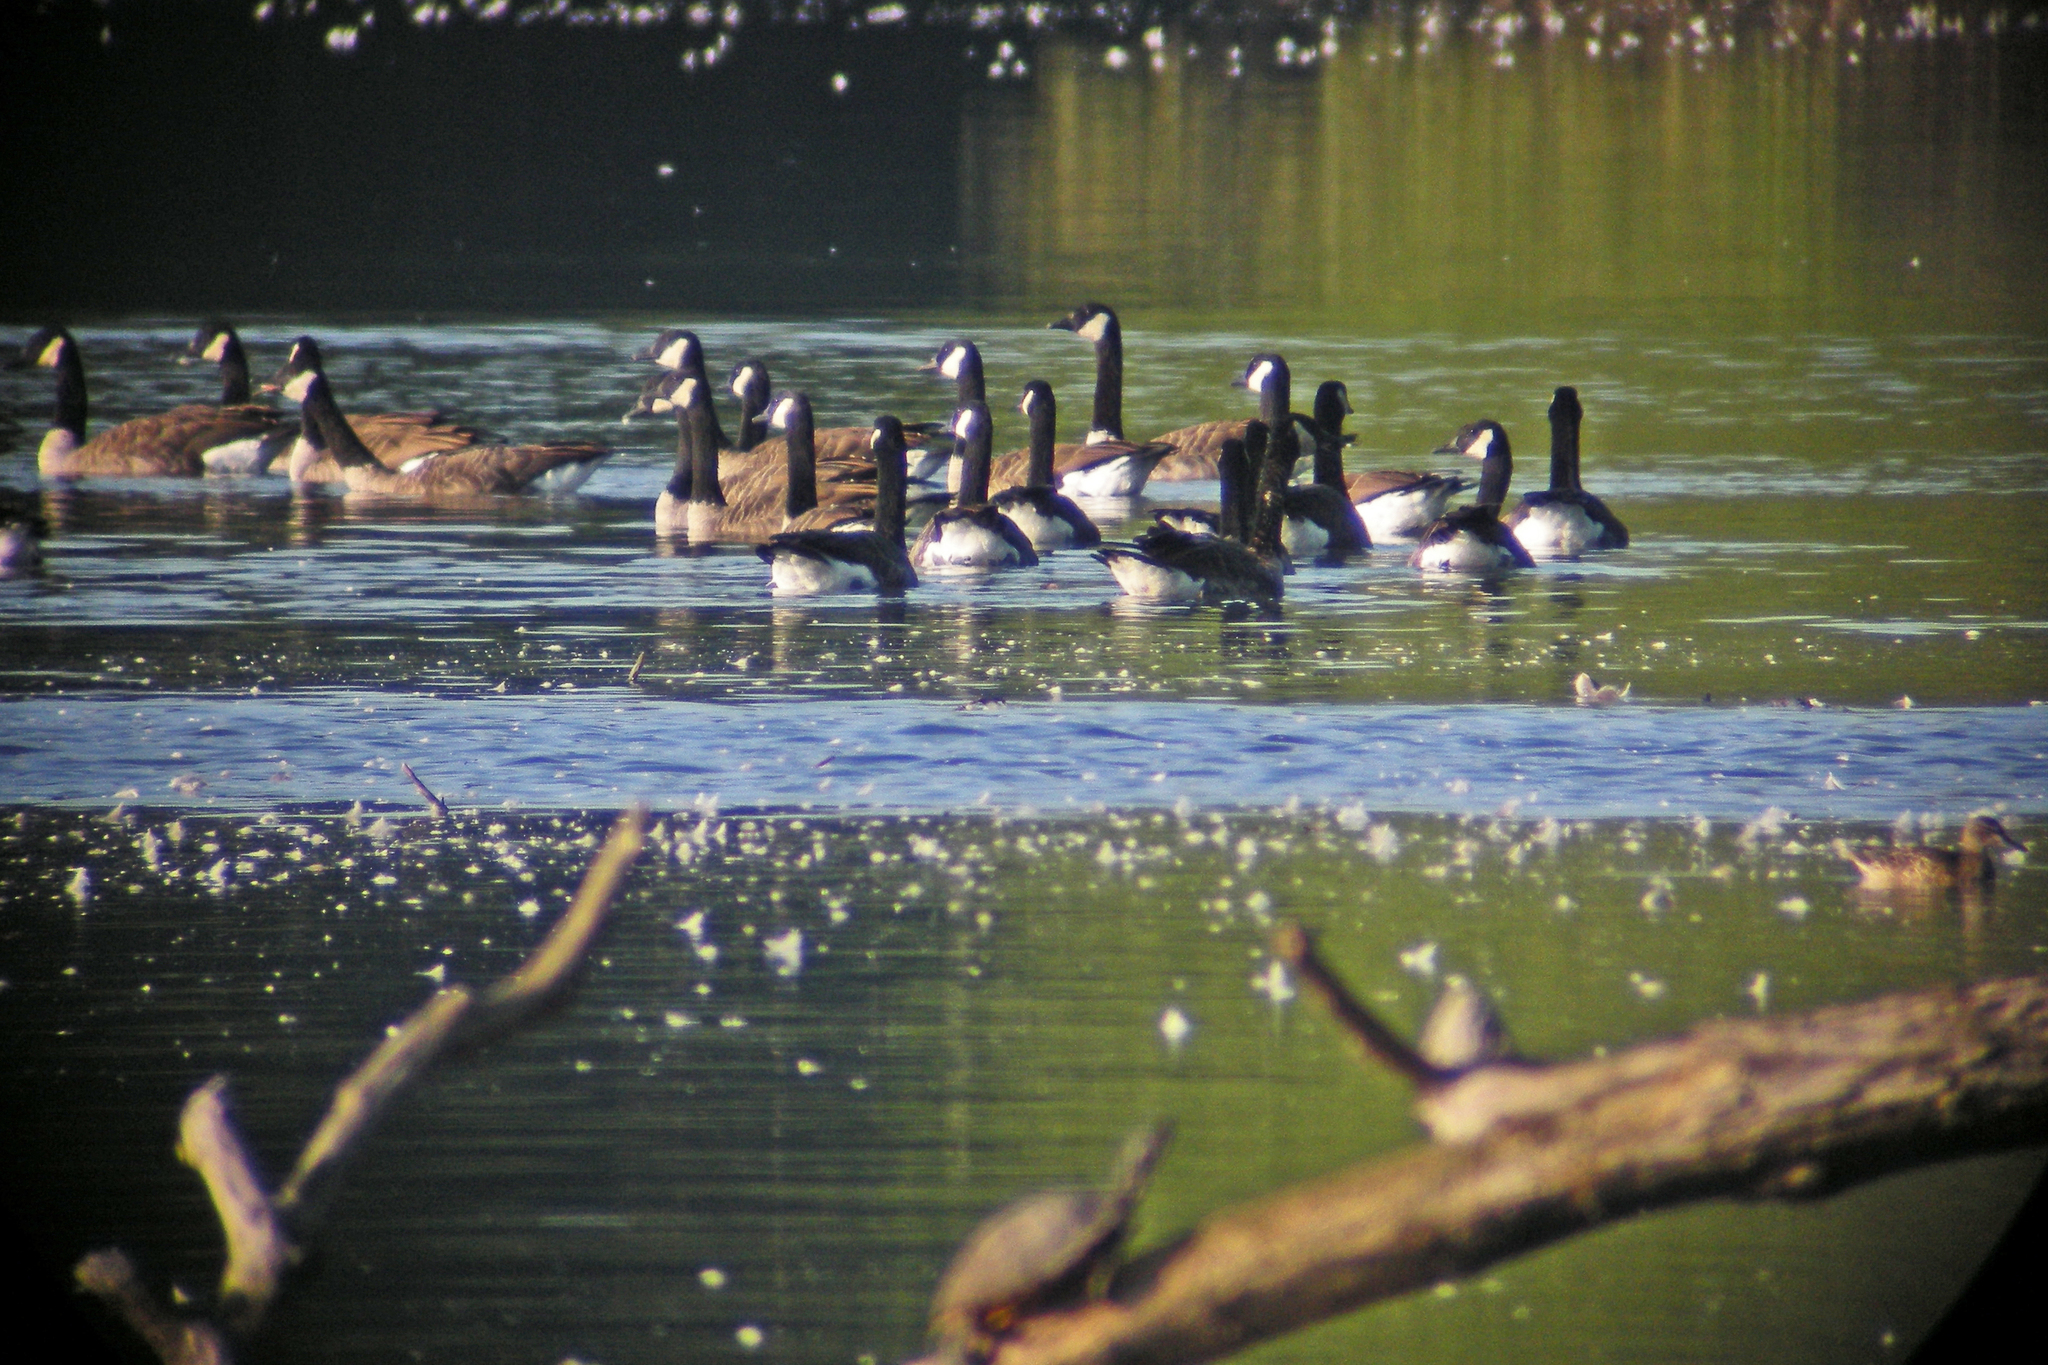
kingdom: Animalia
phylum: Chordata
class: Aves
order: Anseriformes
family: Anatidae
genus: Branta
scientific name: Branta canadensis
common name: Canada goose
